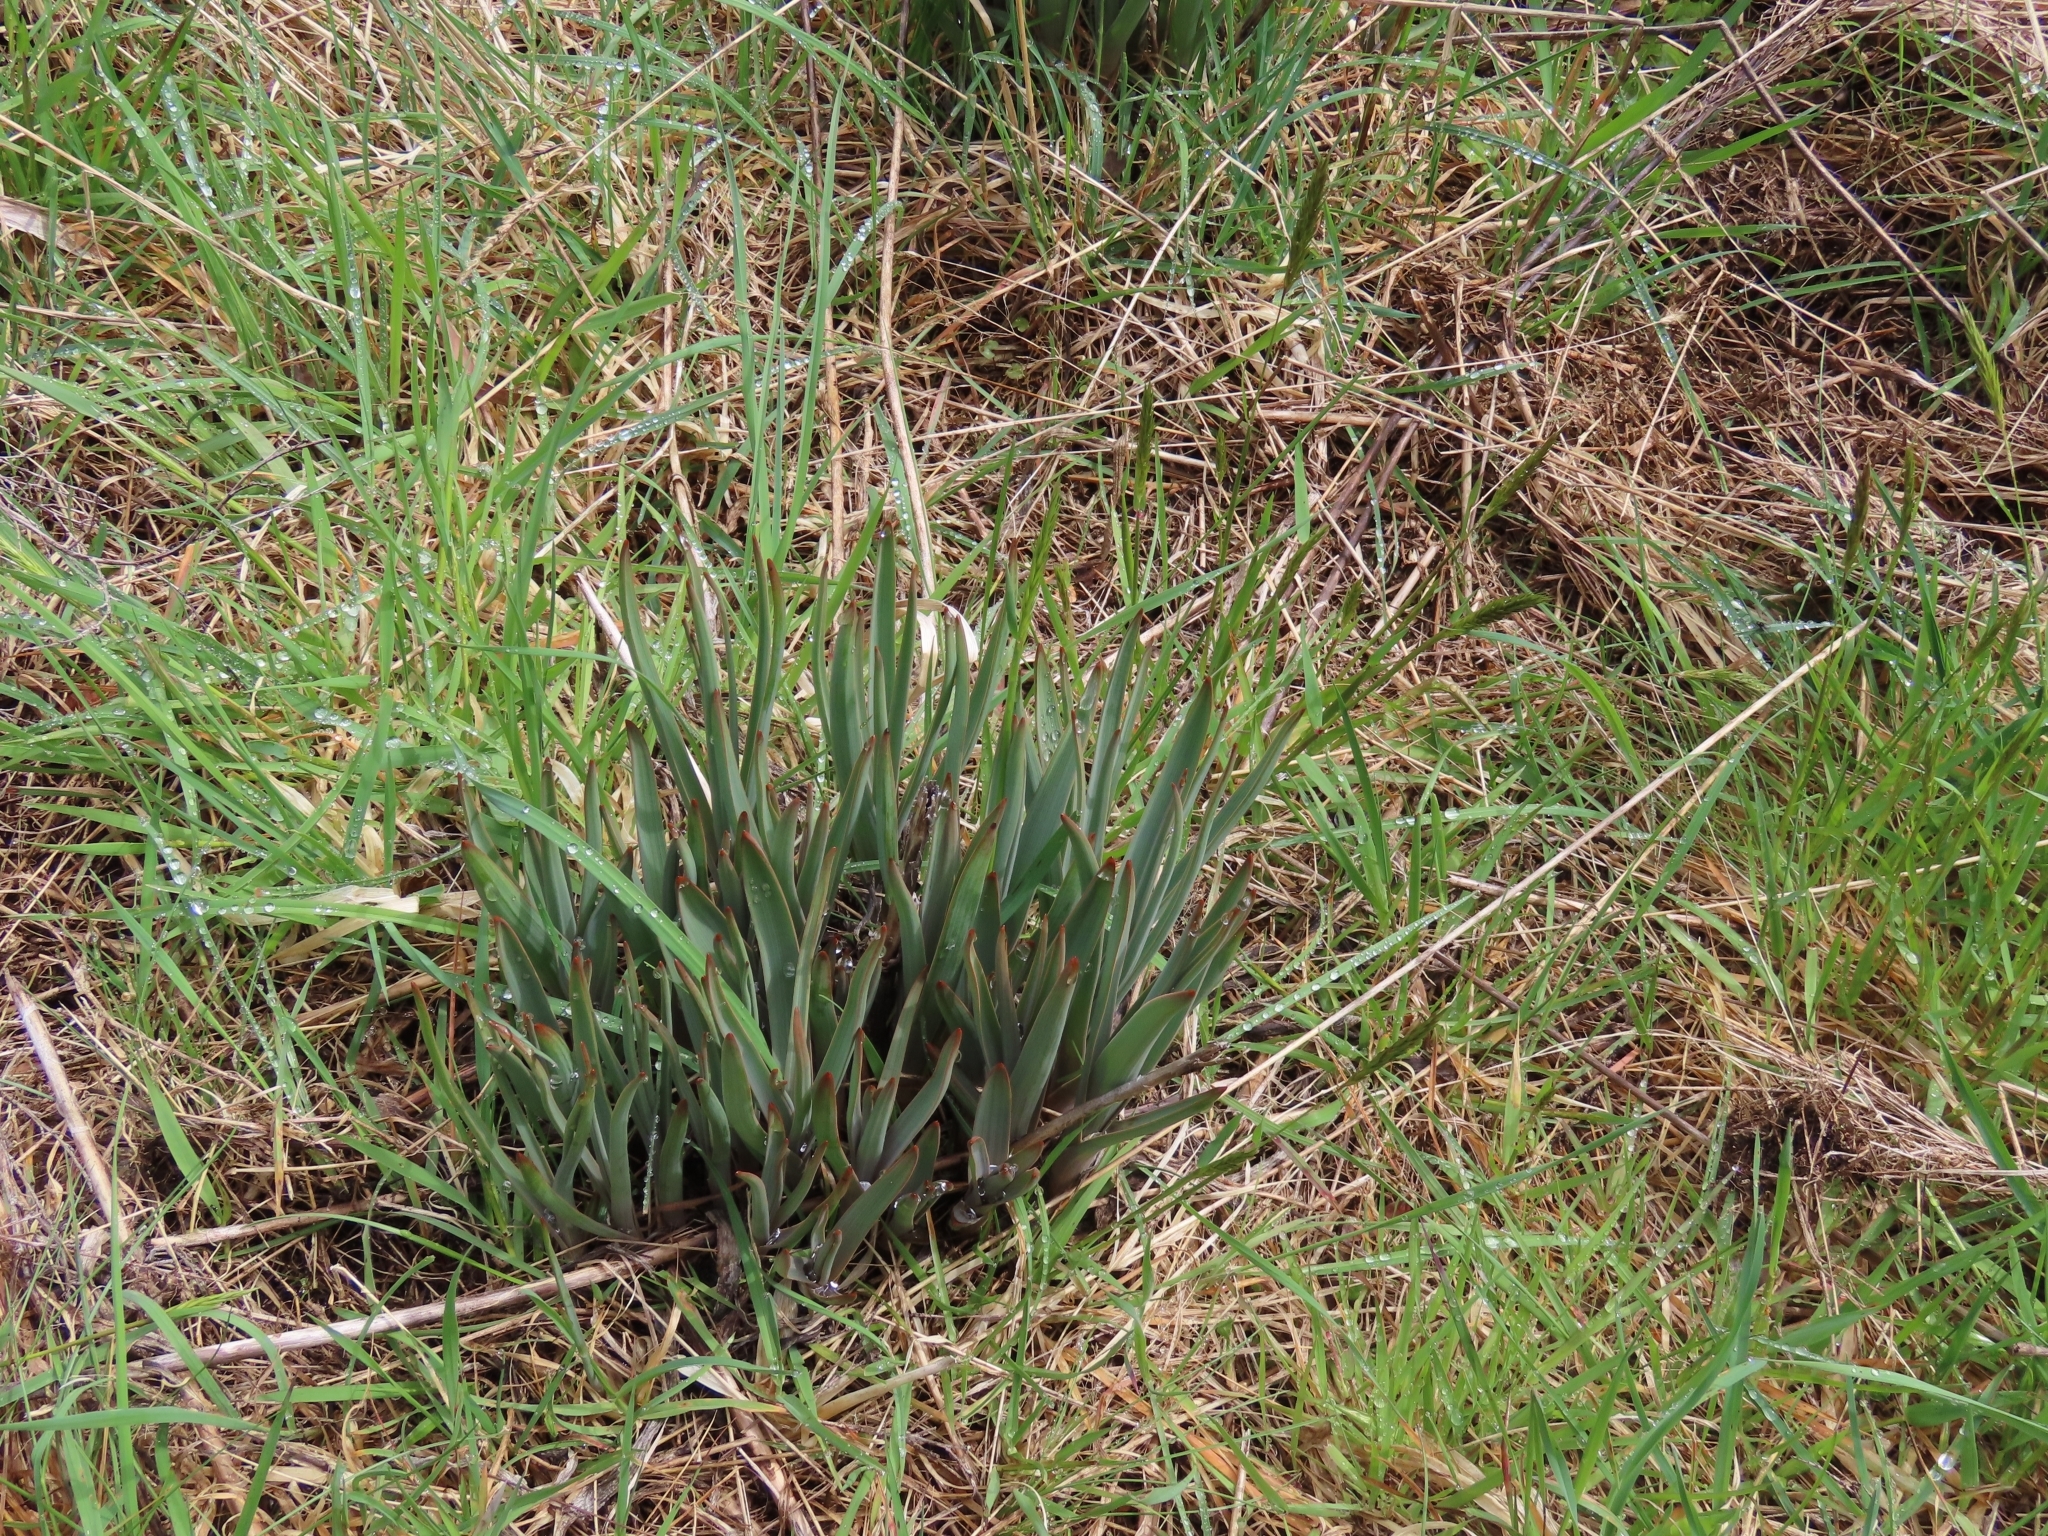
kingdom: Plantae
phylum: Tracheophyta
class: Liliopsida
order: Asparagales
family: Asphodelaceae
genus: Bulbinella
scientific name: Bulbinella hookeri
